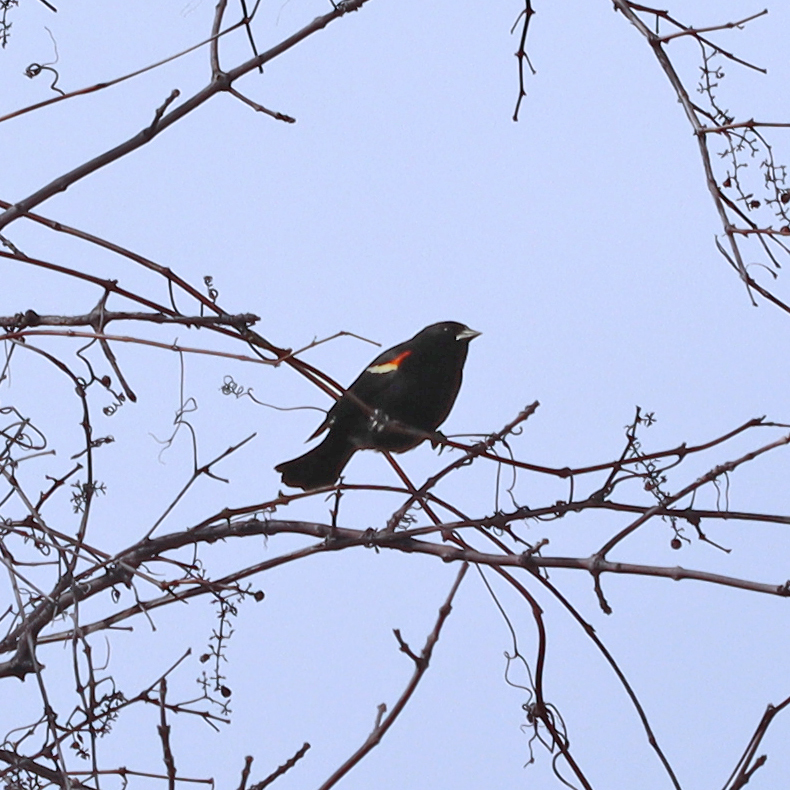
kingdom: Animalia
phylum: Chordata
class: Aves
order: Passeriformes
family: Icteridae
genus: Agelaius
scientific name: Agelaius phoeniceus
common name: Red-winged blackbird
